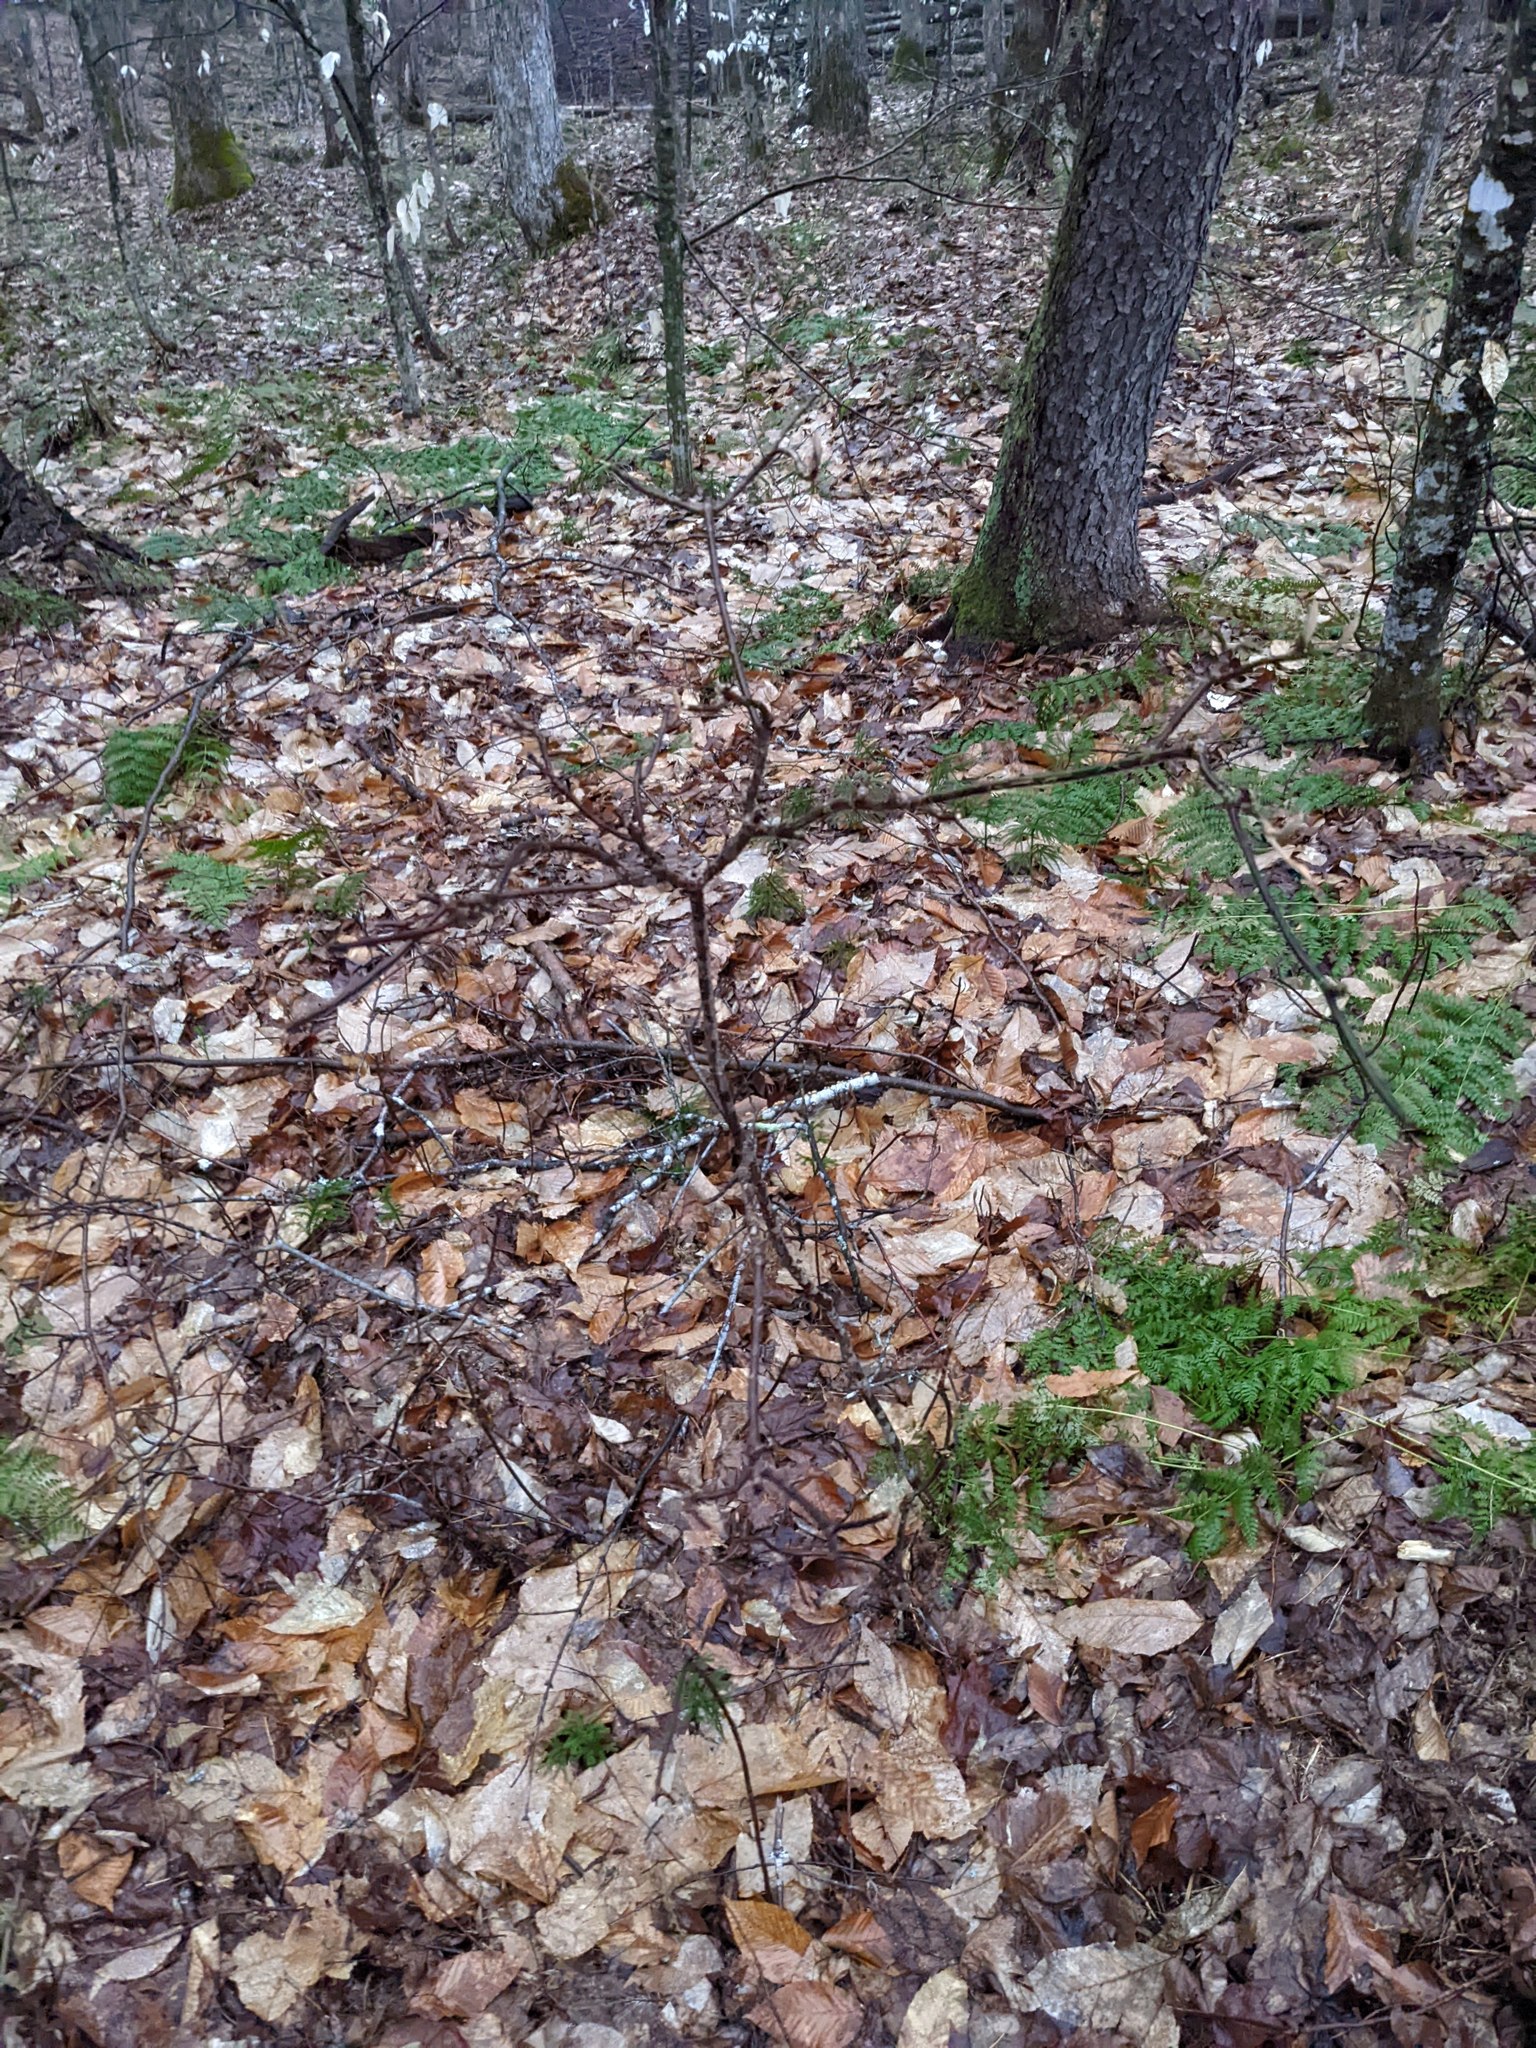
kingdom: Plantae
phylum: Tracheophyta
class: Magnoliopsida
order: Dipsacales
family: Viburnaceae
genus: Viburnum
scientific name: Viburnum lantanoides
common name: Hobblebush
